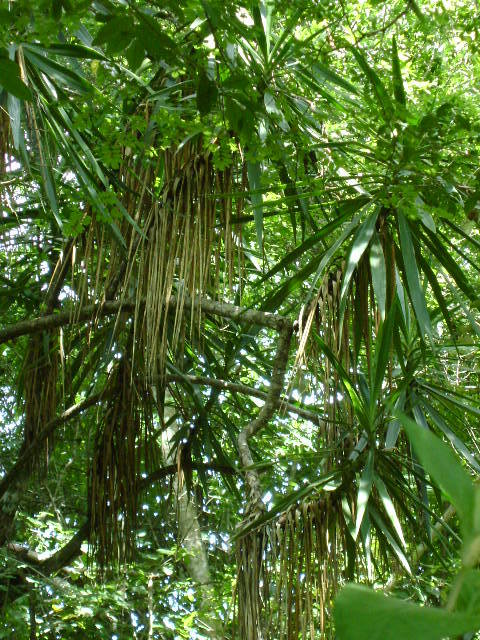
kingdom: Plantae
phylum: Tracheophyta
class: Liliopsida
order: Asparagales
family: Asparagaceae
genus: Yucca
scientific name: Yucca gigantea
